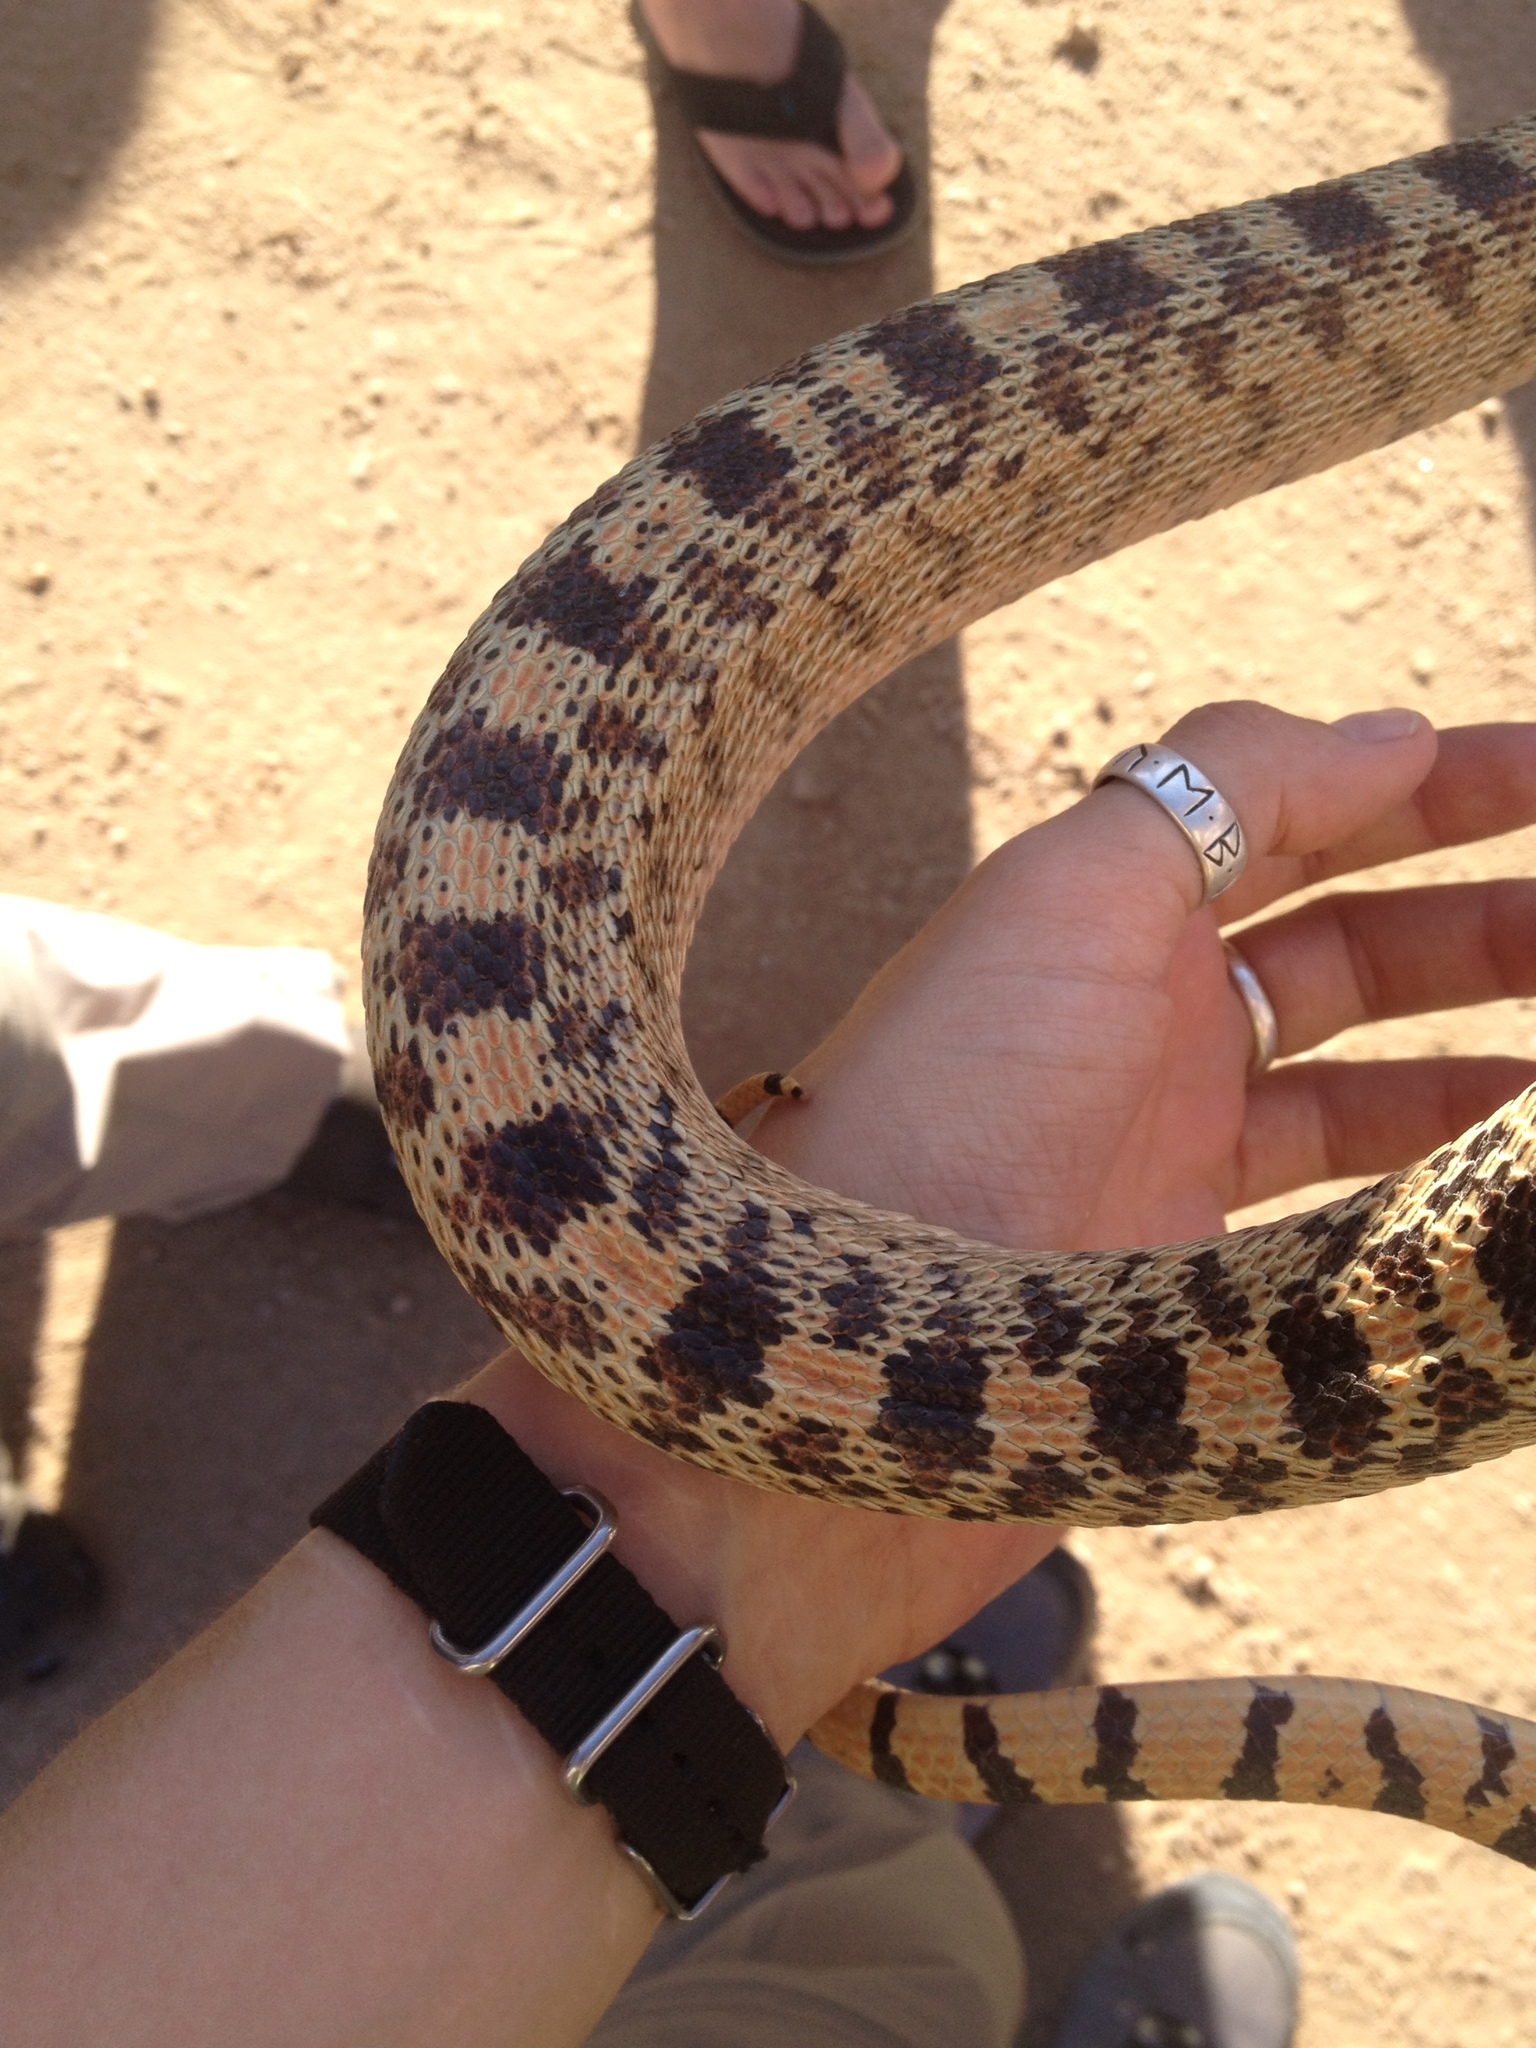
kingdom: Animalia
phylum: Chordata
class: Squamata
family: Colubridae
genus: Pituophis
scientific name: Pituophis catenifer
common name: Gopher snake
